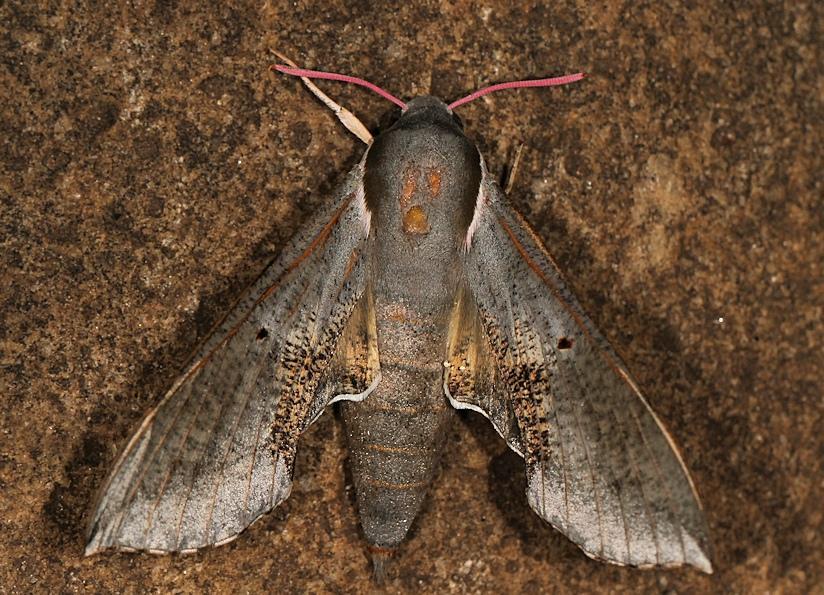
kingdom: Animalia
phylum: Arthropoda
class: Insecta
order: Lepidoptera
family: Sphingidae
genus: Hippotion
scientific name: Hippotion rosae
